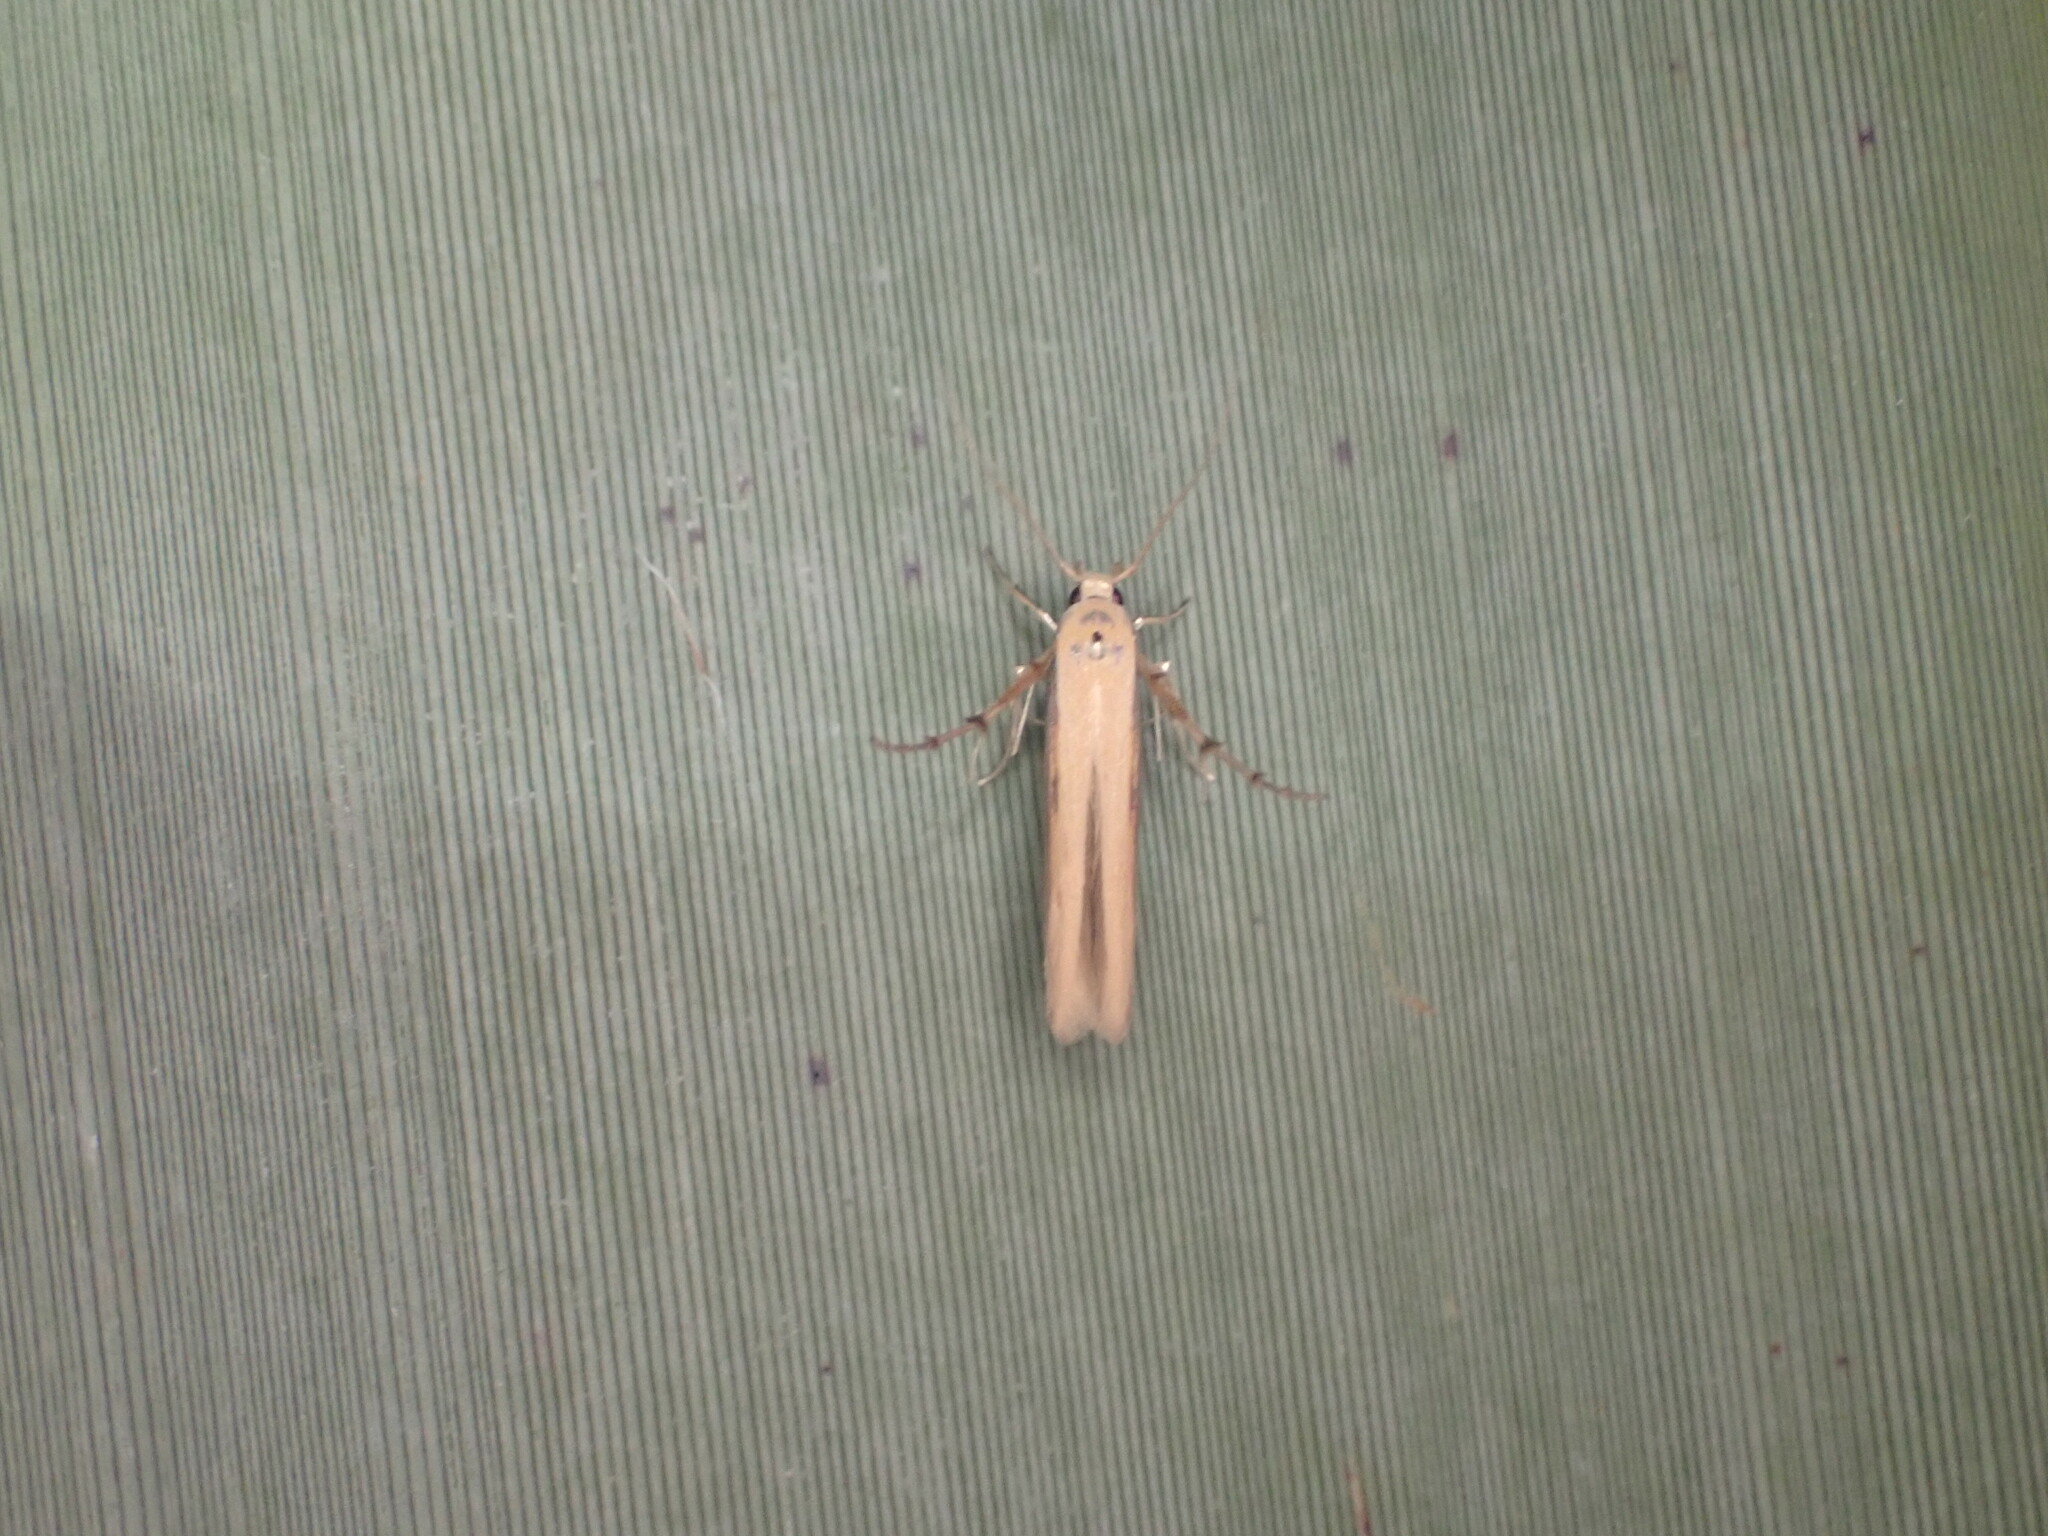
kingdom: Animalia
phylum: Arthropoda
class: Insecta
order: Lepidoptera
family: Stathmopodidae
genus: Stathmopoda
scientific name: Stathmopoda skelloni
